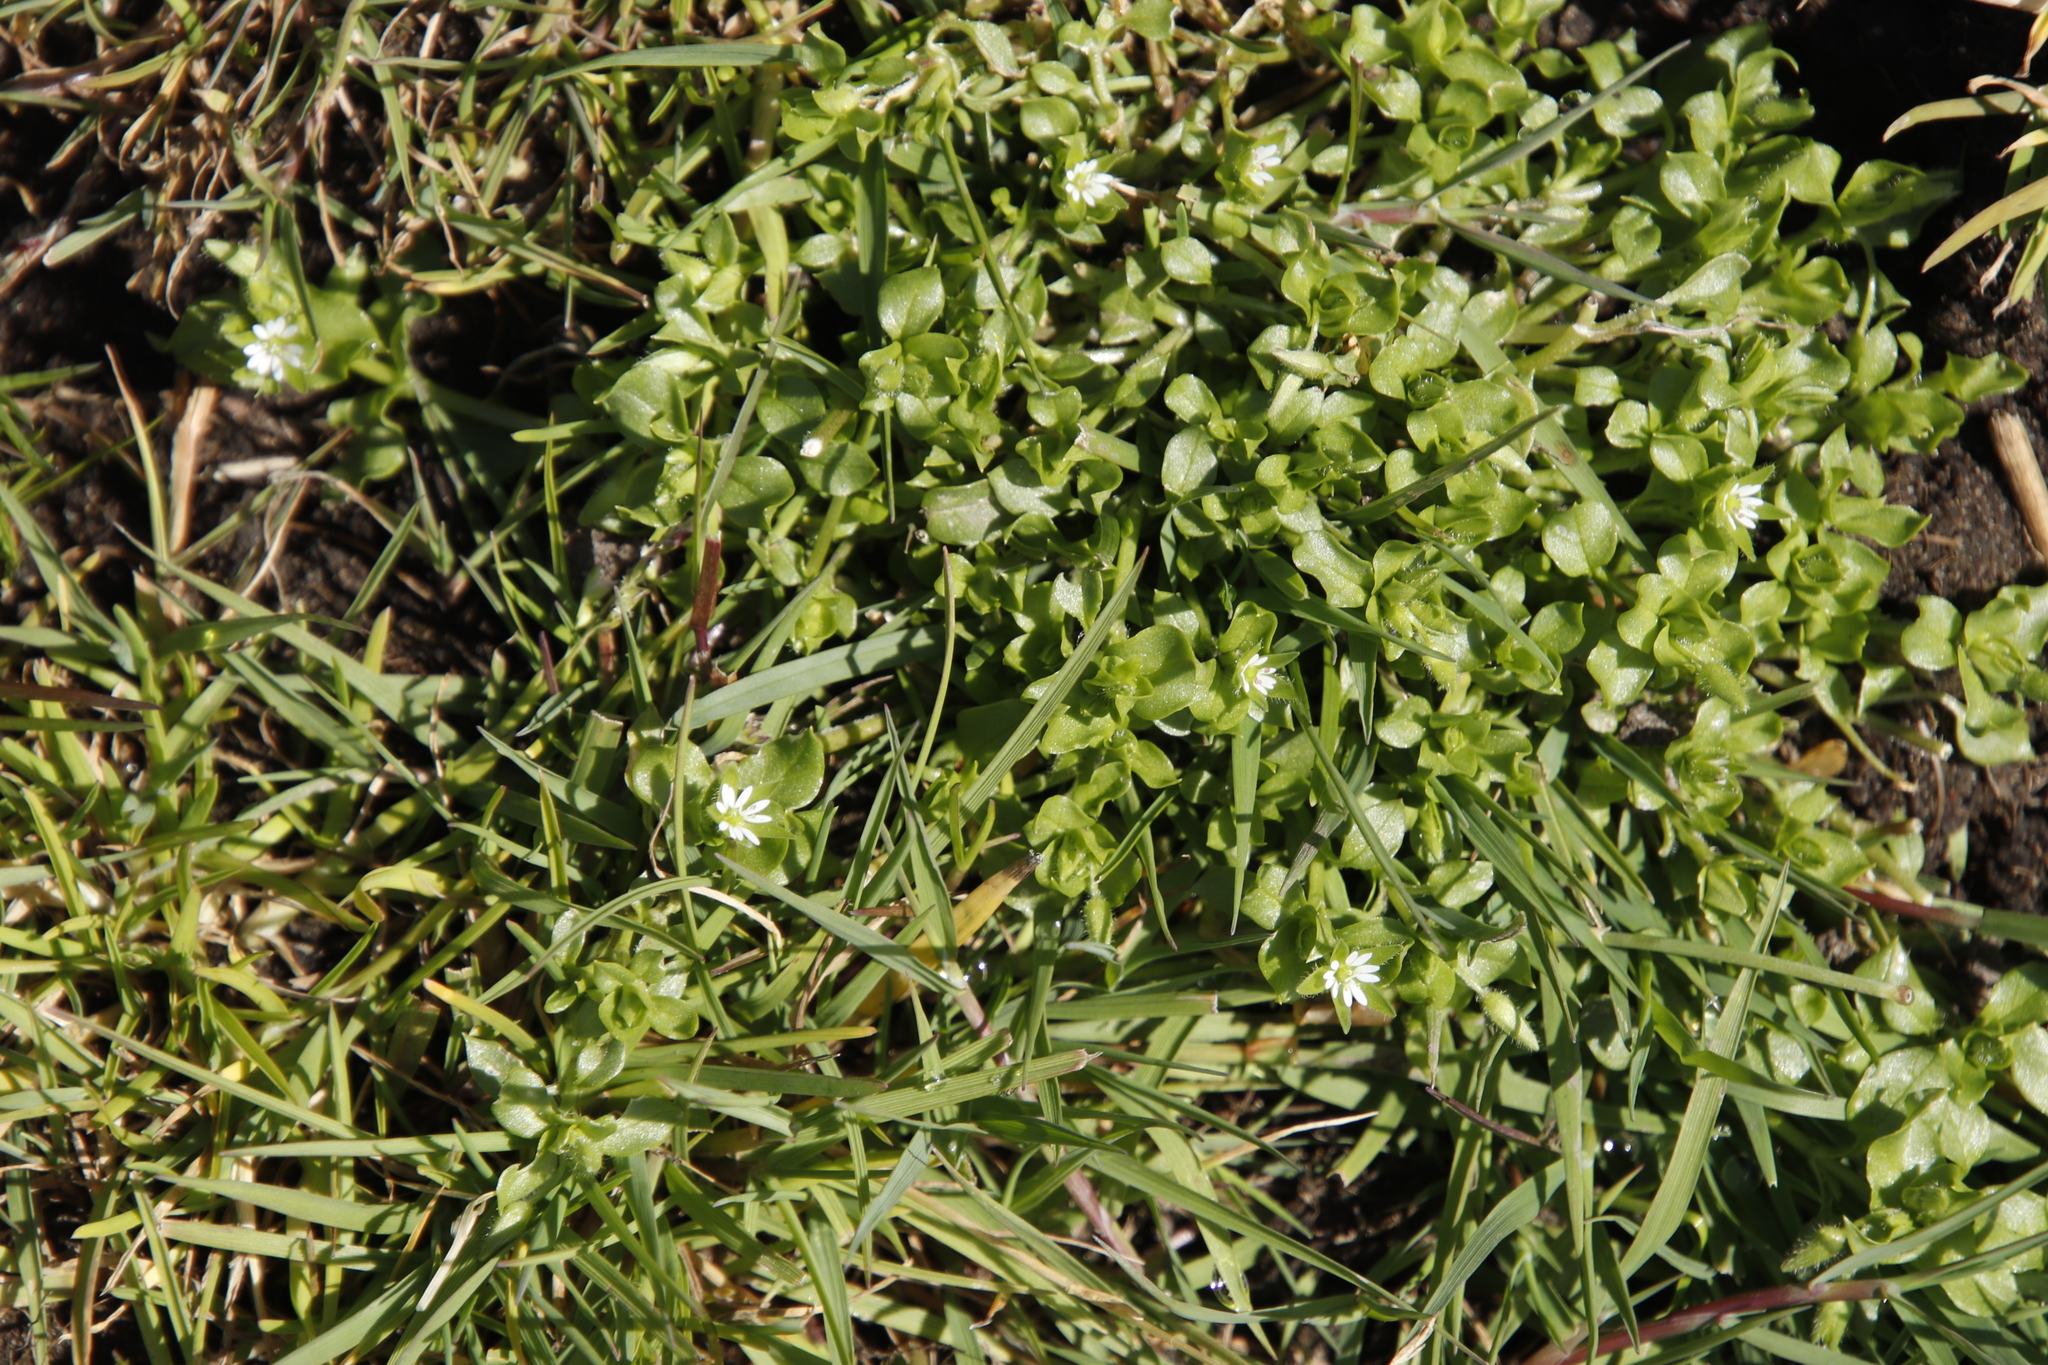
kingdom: Plantae
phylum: Tracheophyta
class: Magnoliopsida
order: Caryophyllales
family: Caryophyllaceae
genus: Stellaria
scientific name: Stellaria media
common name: Common chickweed
